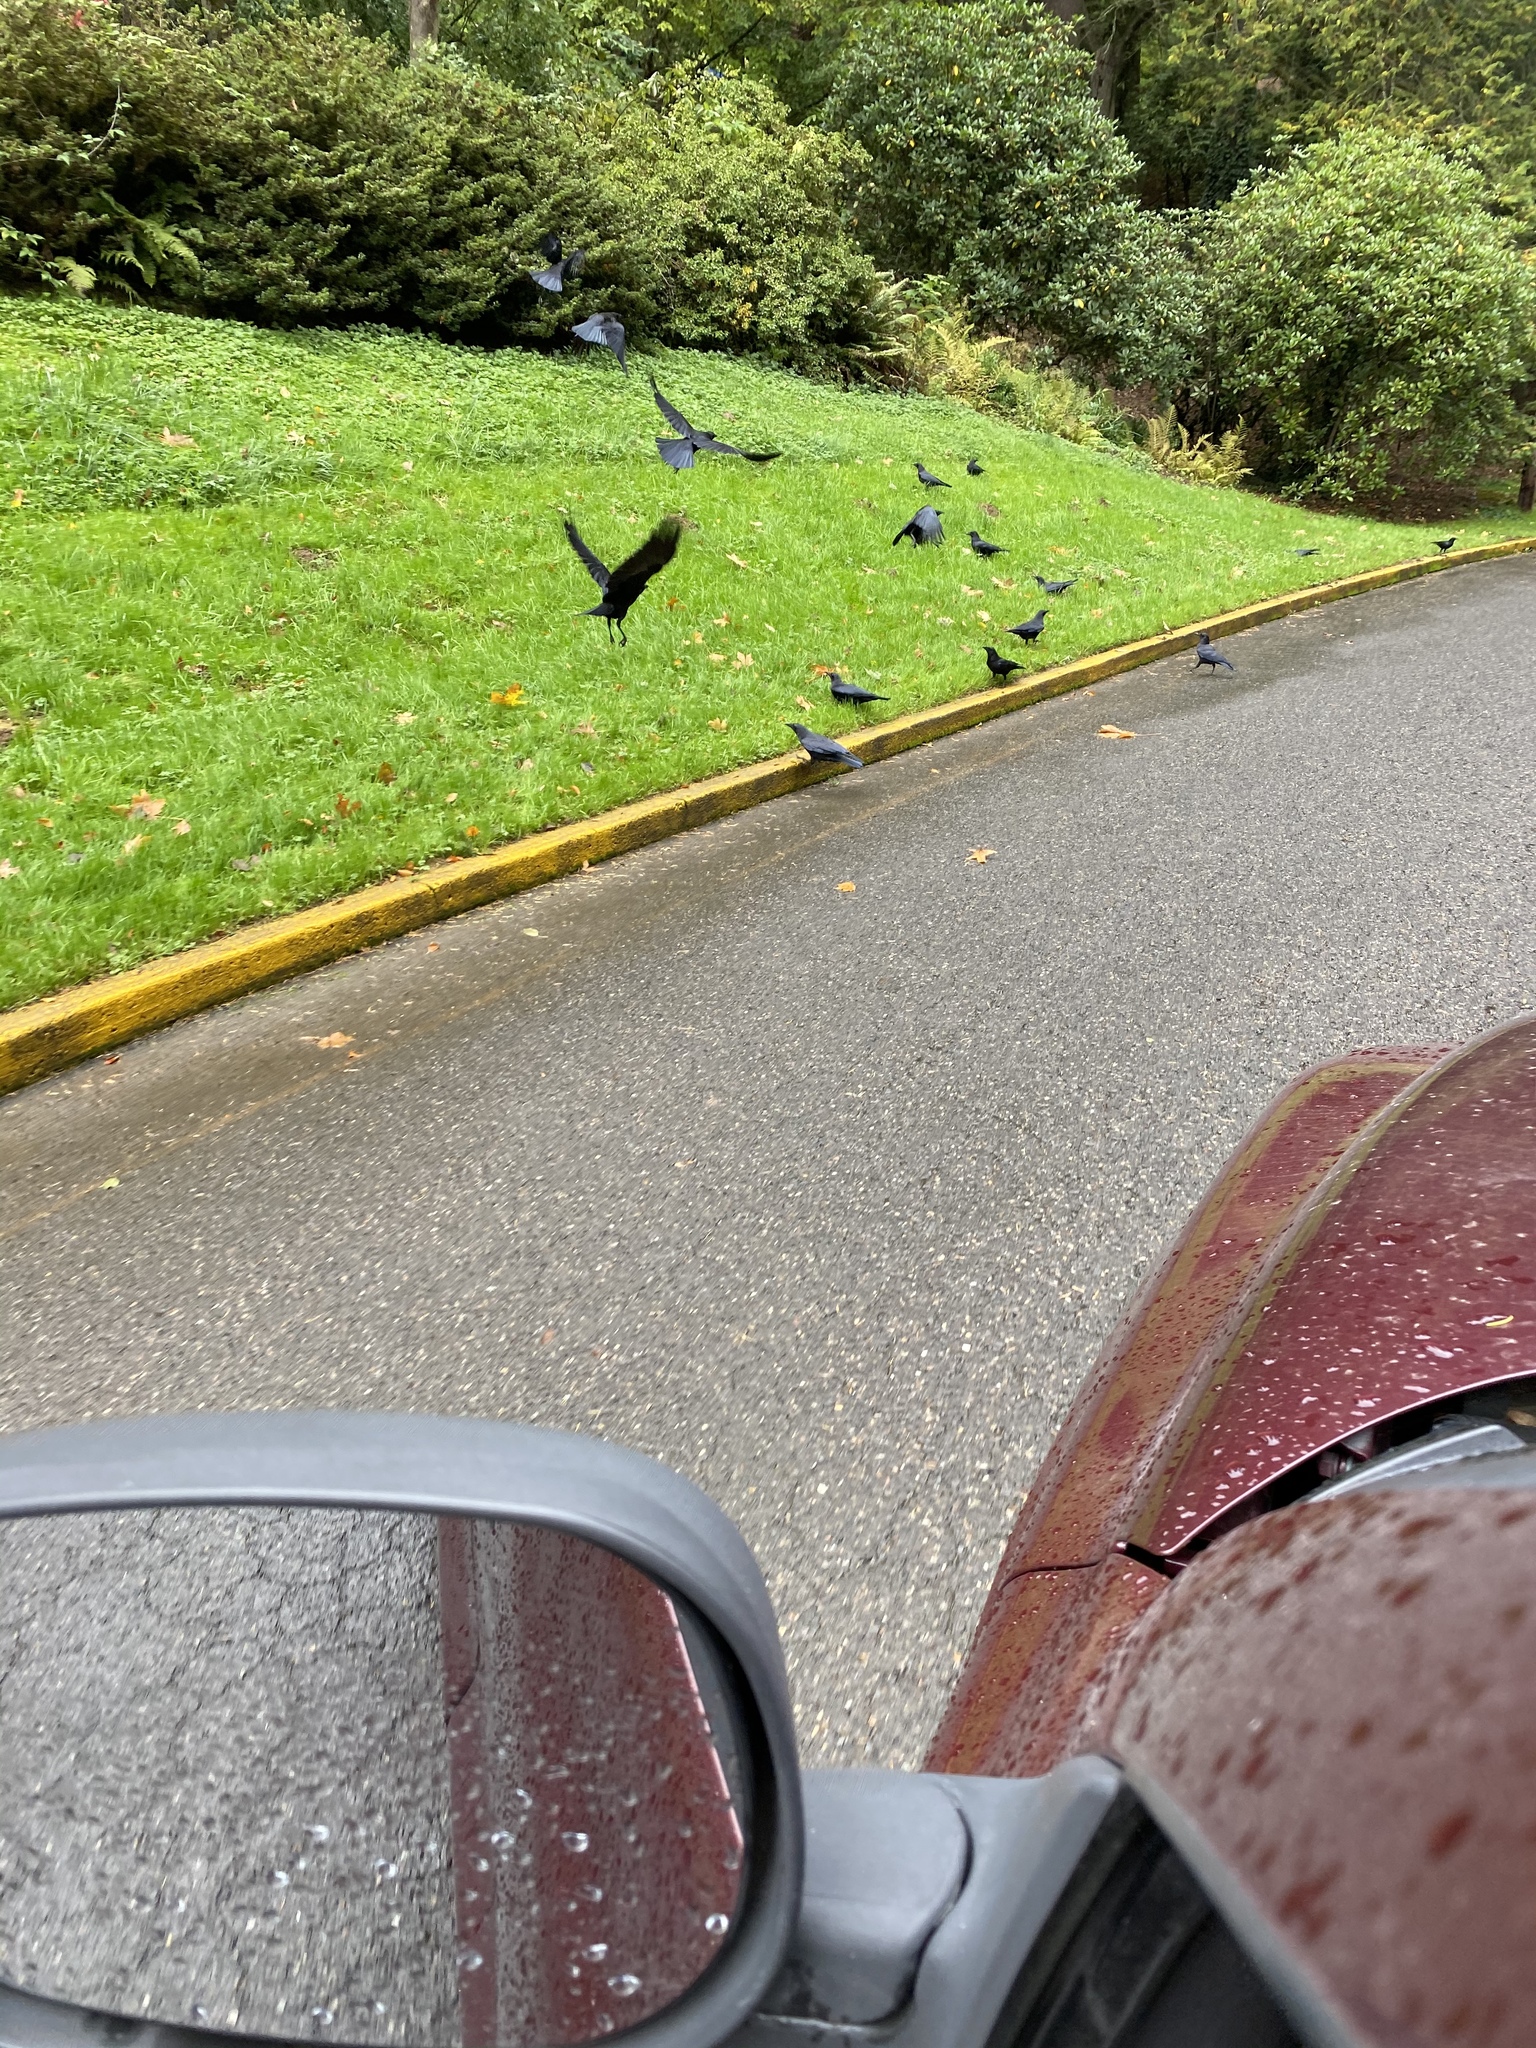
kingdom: Animalia
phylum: Chordata
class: Aves
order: Passeriformes
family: Corvidae
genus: Corvus
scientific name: Corvus brachyrhynchos
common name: American crow
